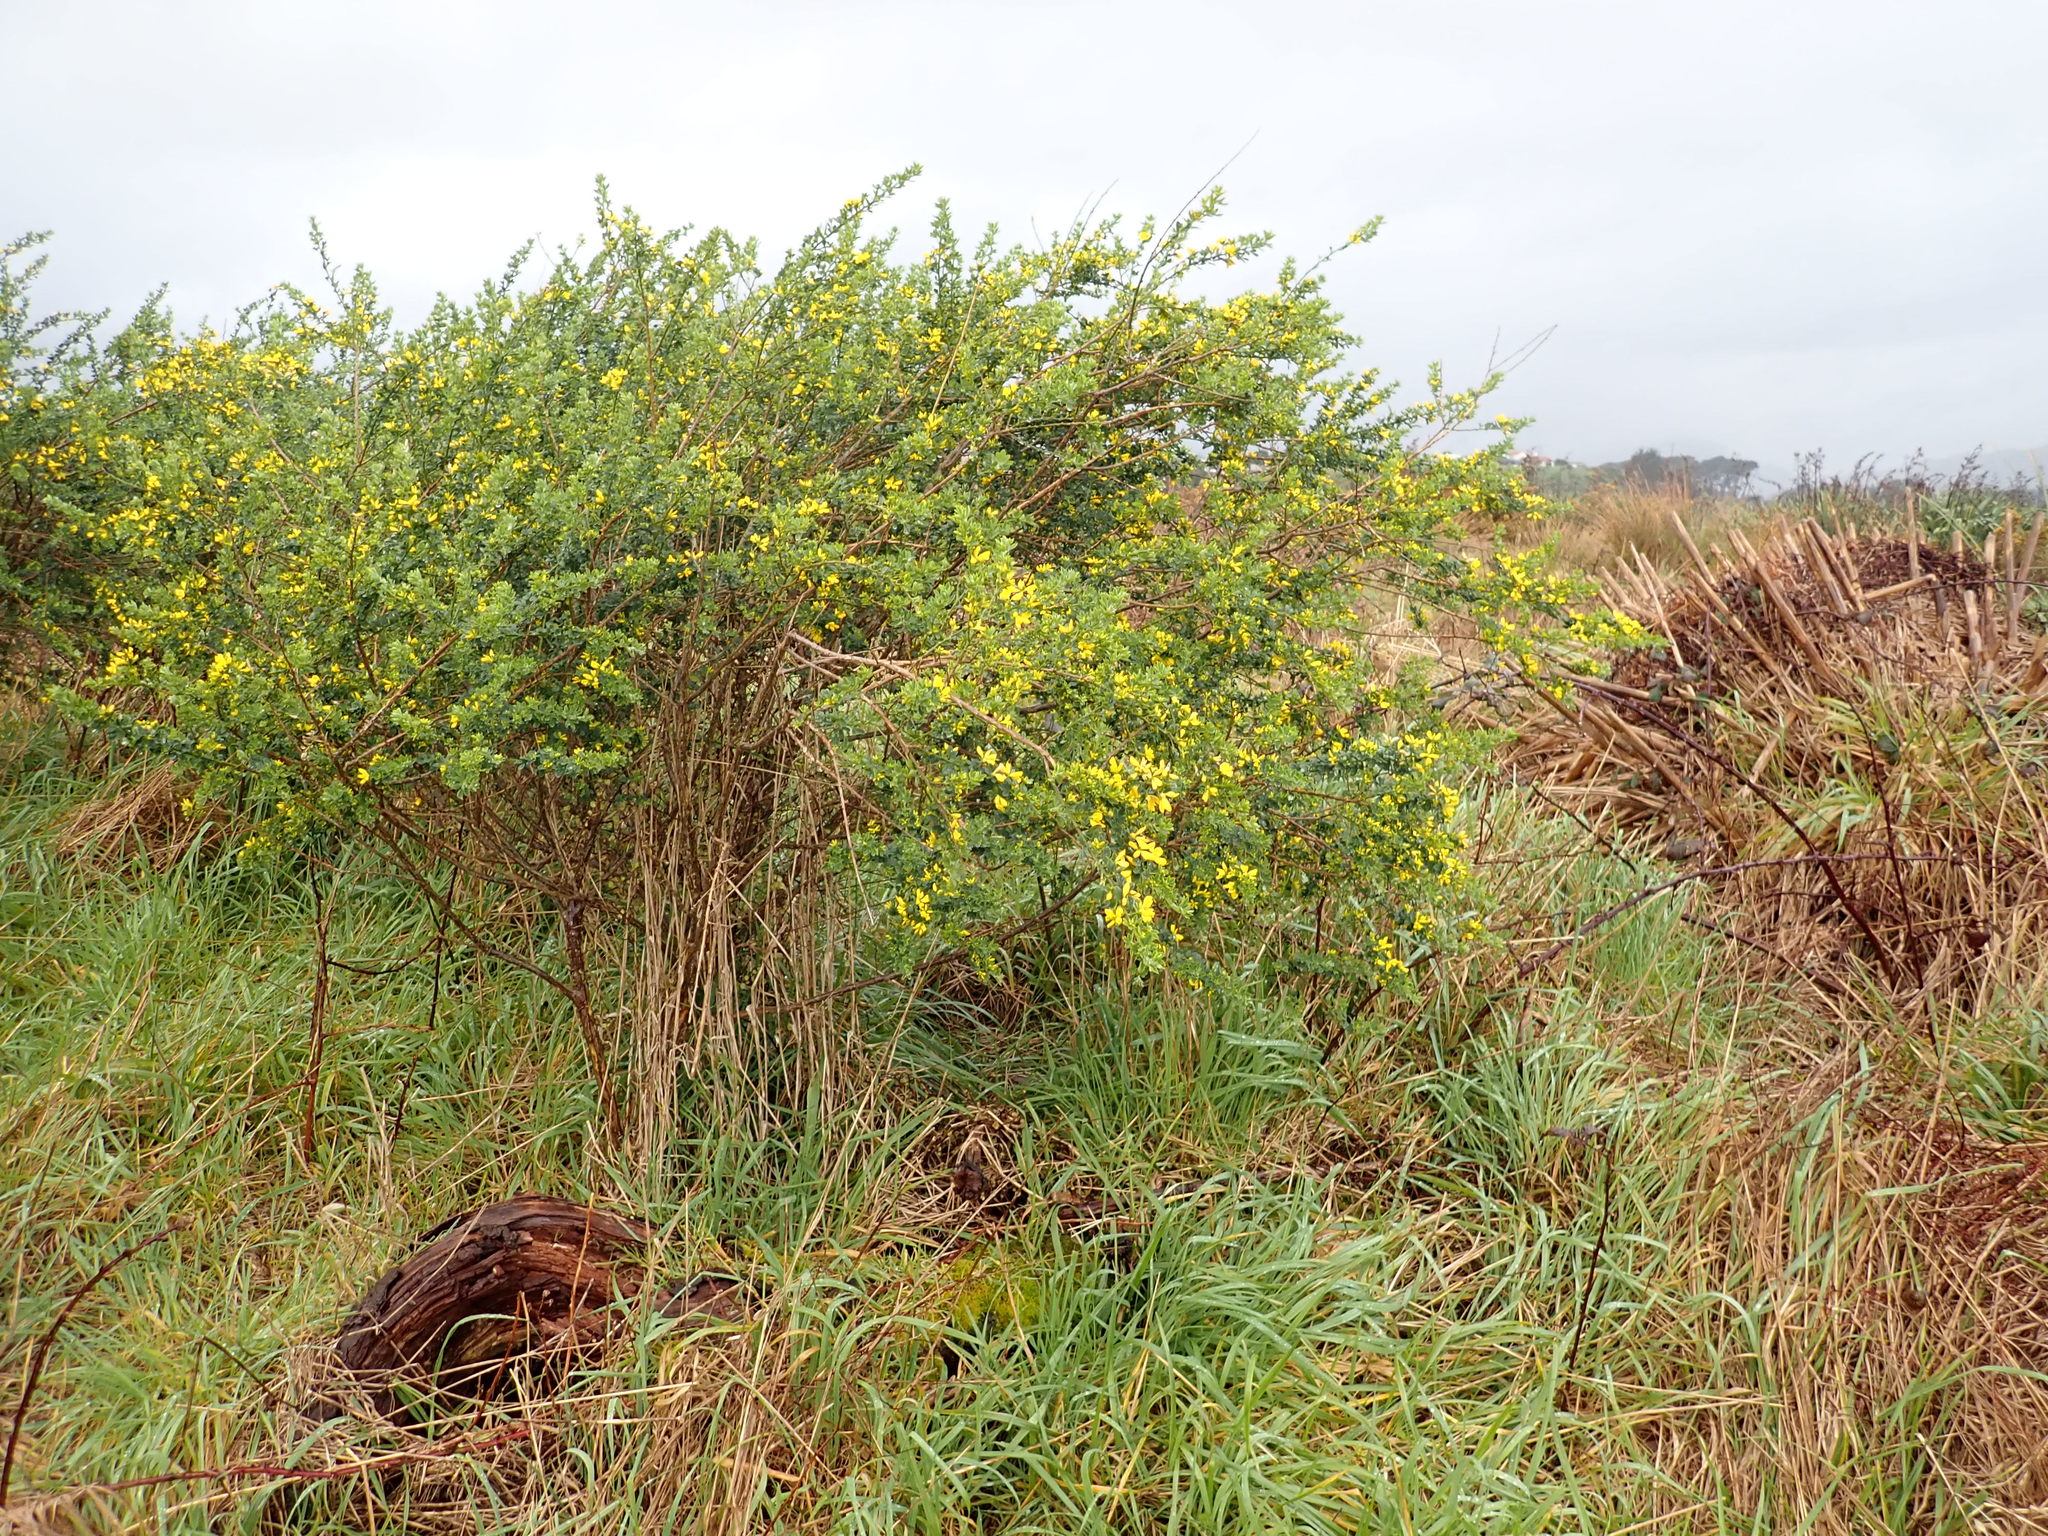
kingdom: Plantae
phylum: Tracheophyta
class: Magnoliopsida
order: Fabales
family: Fabaceae
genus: Genista
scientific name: Genista monspessulana
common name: Montpellier broom
